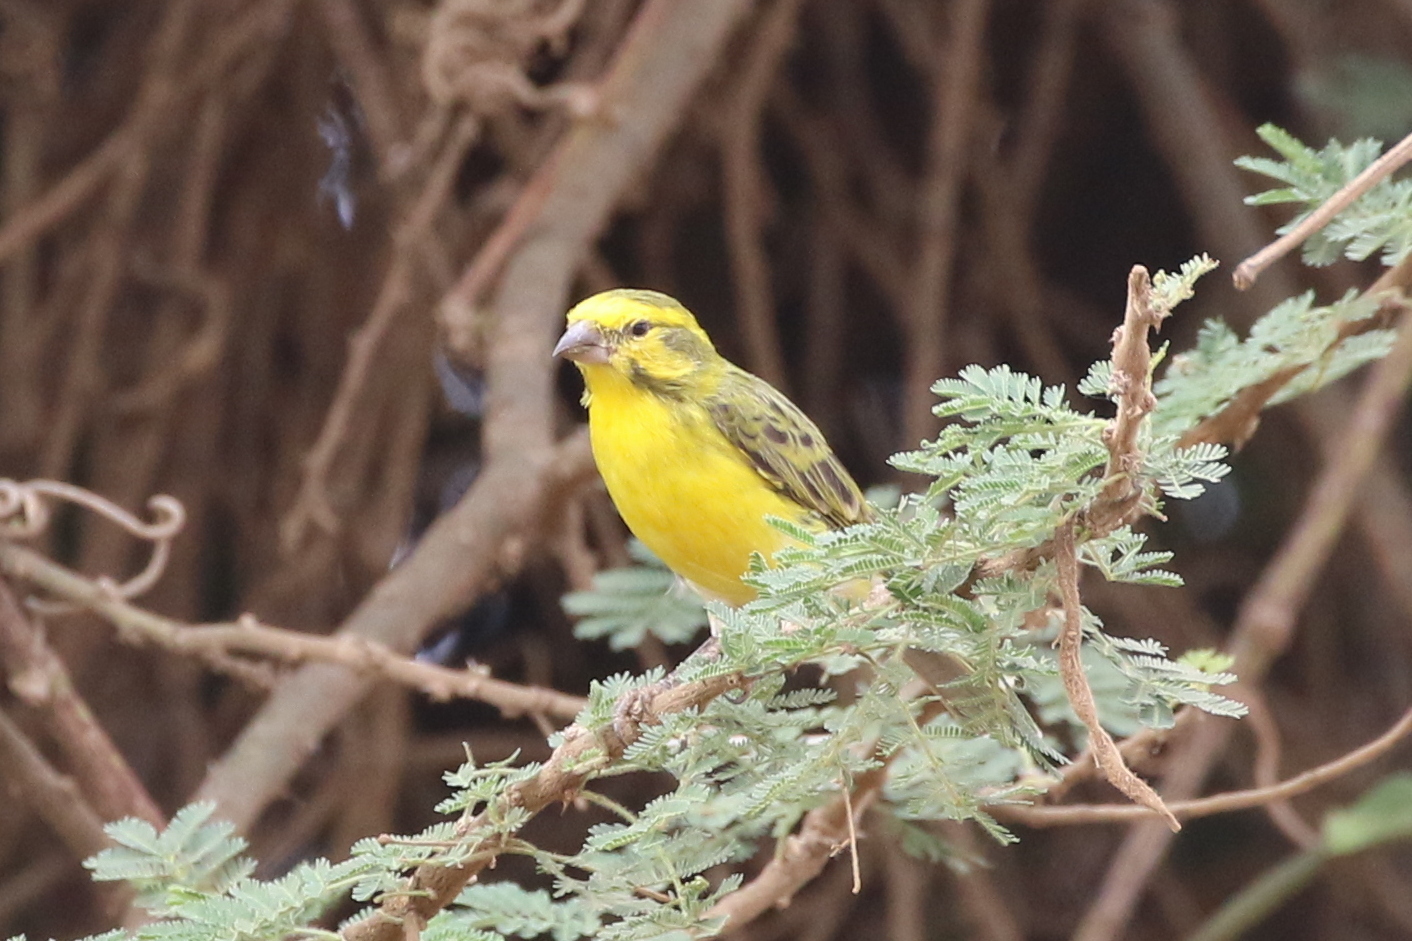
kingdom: Animalia
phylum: Chordata
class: Aves
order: Passeriformes
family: Fringillidae
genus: Crithagra
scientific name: Crithagra dorsostriata
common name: White-bellied canary
